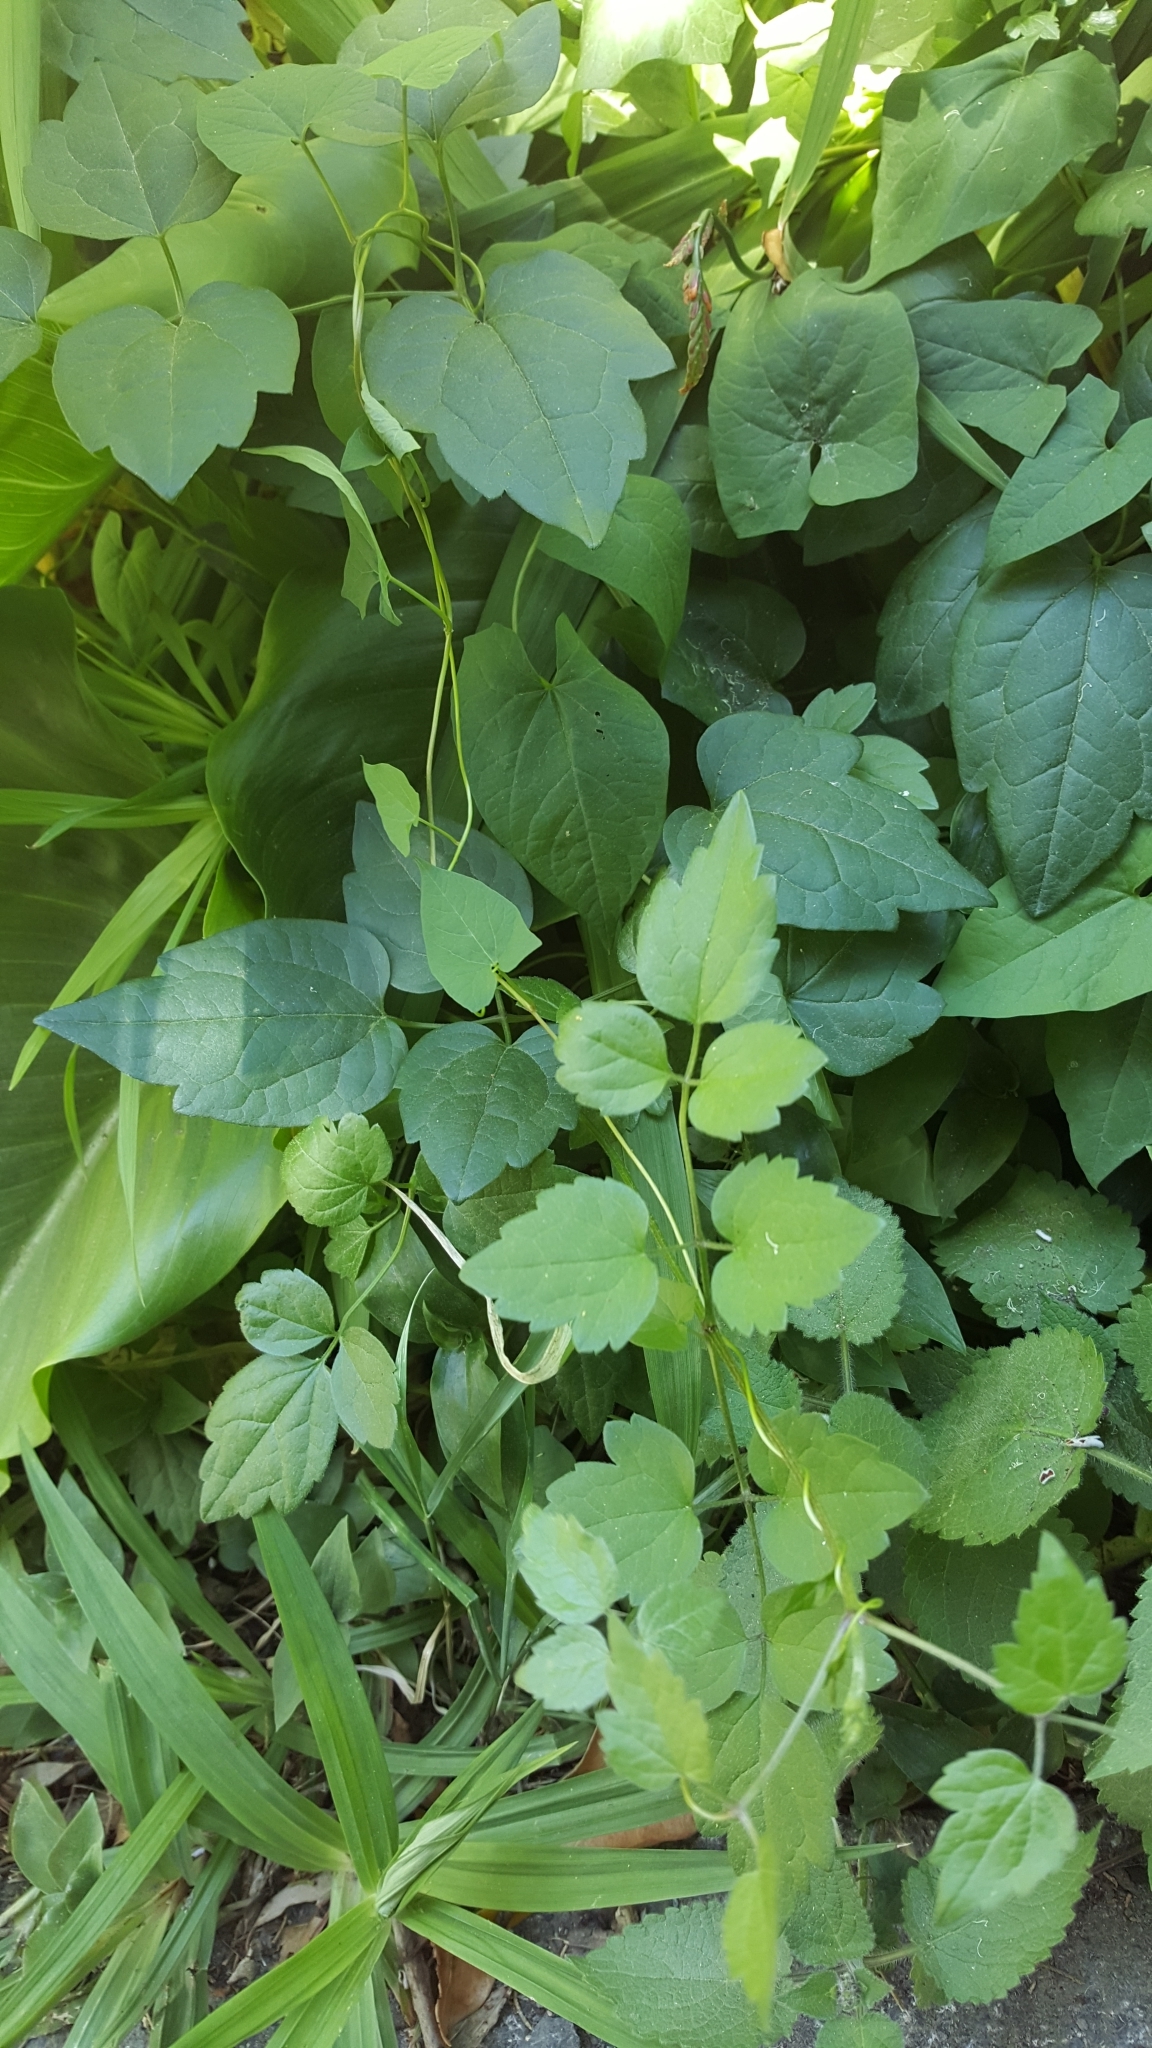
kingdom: Plantae
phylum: Tracheophyta
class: Magnoliopsida
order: Ranunculales
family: Ranunculaceae
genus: Clematis
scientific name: Clematis vitalba
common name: Evergreen clematis
